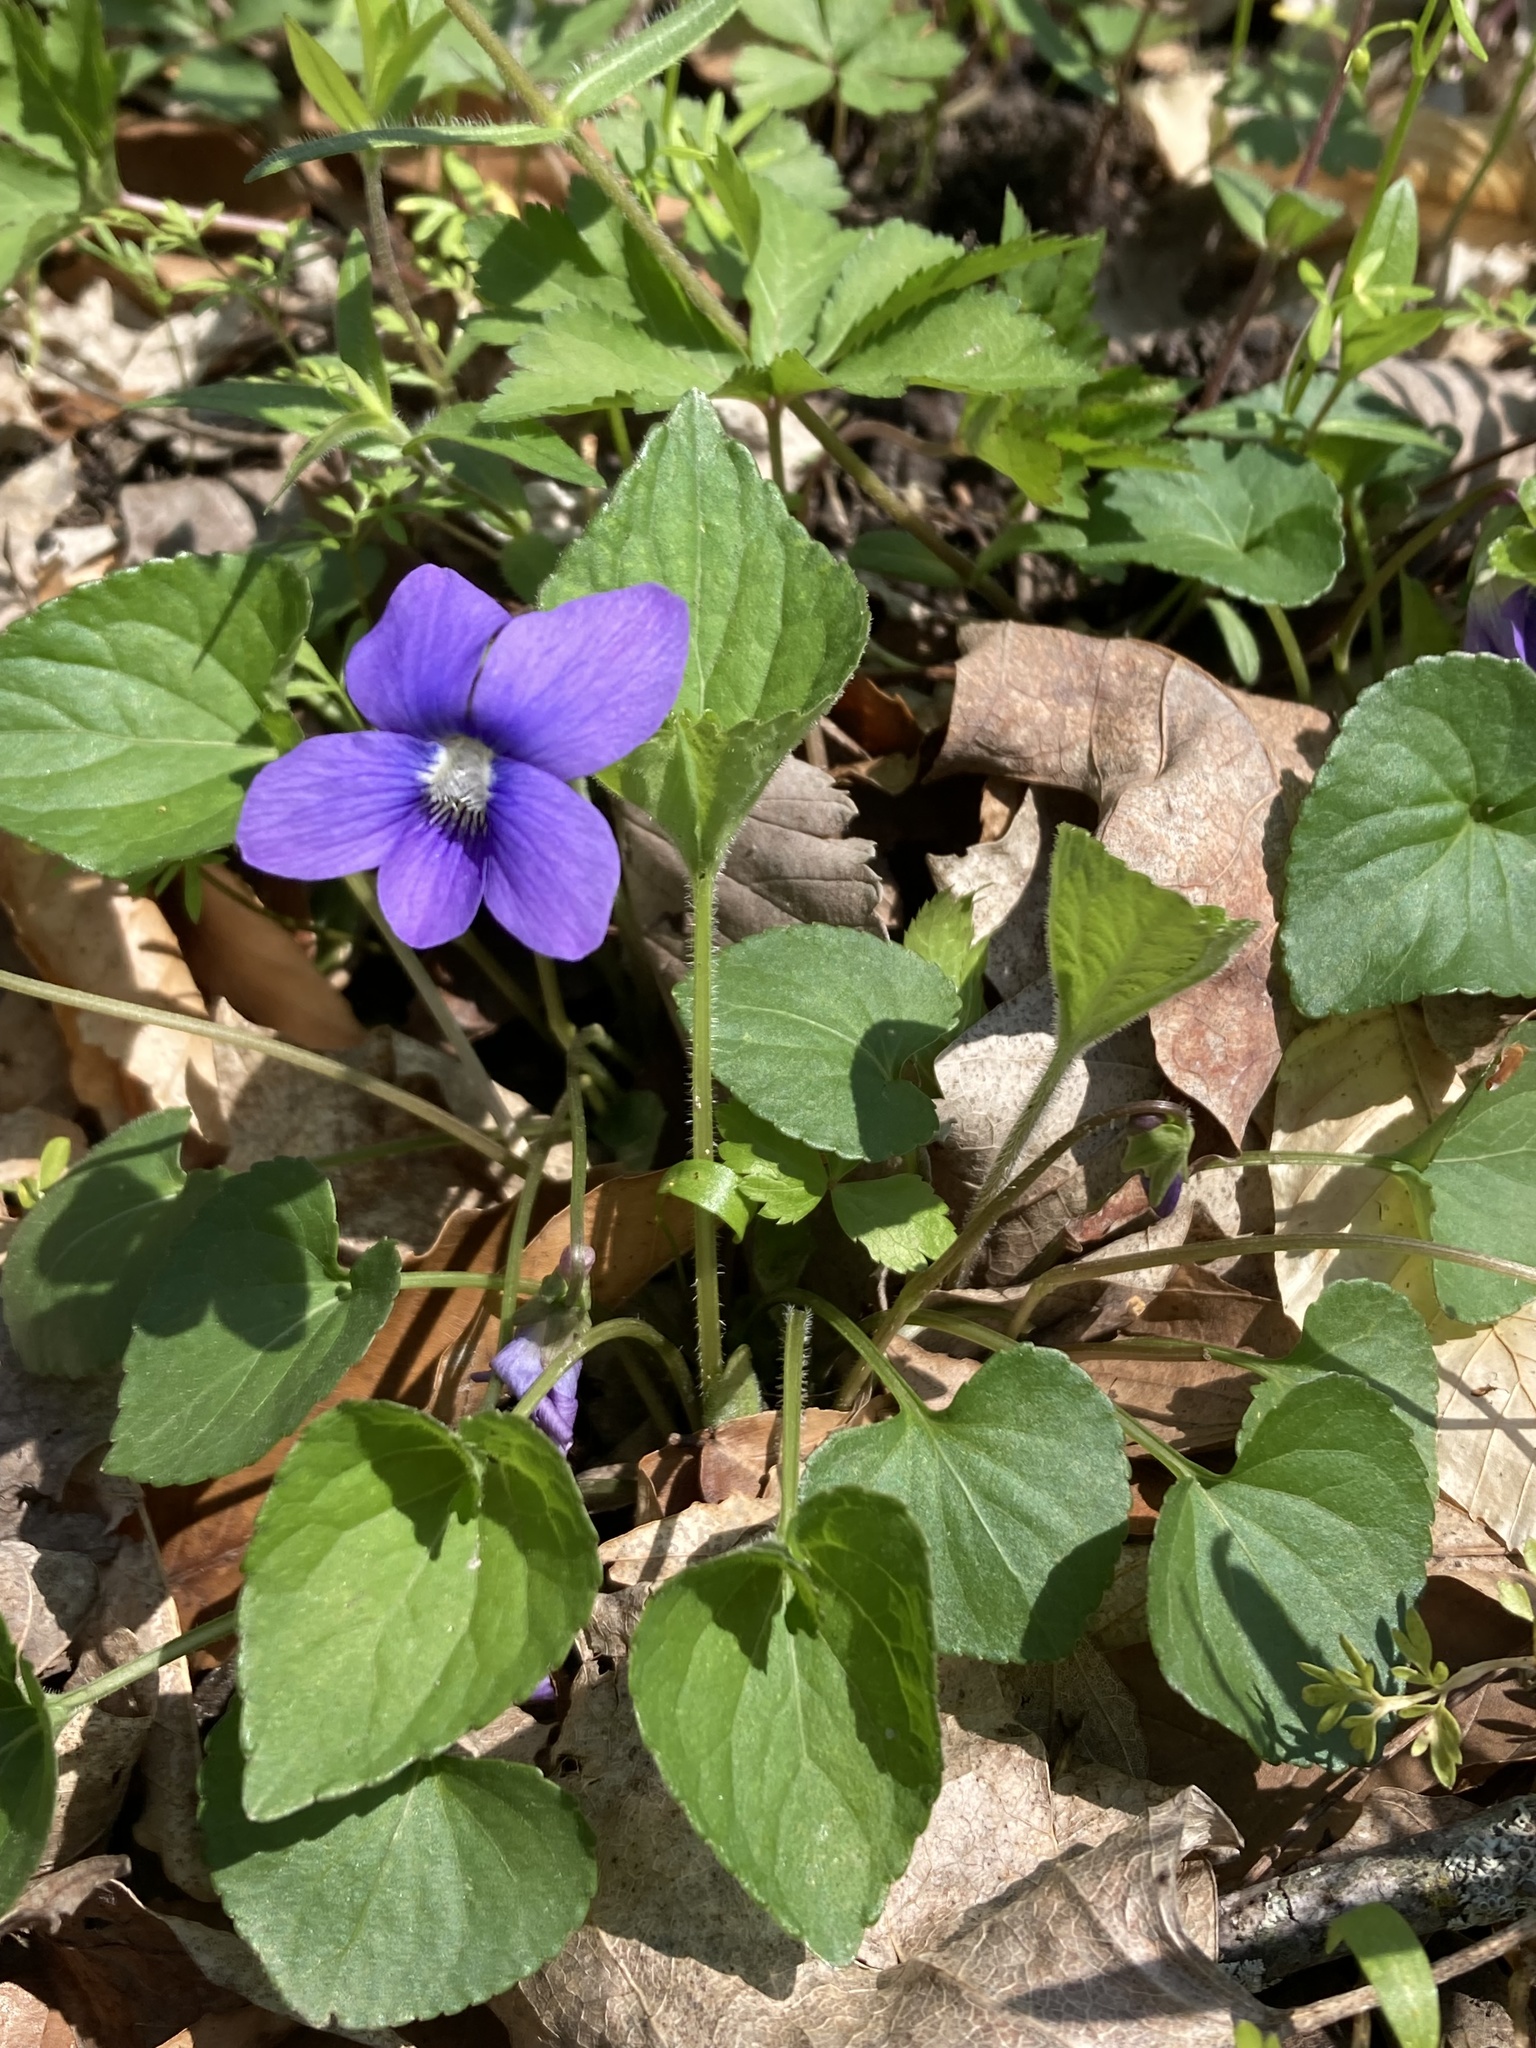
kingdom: Plantae
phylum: Tracheophyta
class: Magnoliopsida
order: Malpighiales
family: Violaceae
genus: Viola
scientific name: Viola sororia
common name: Dooryard violet
